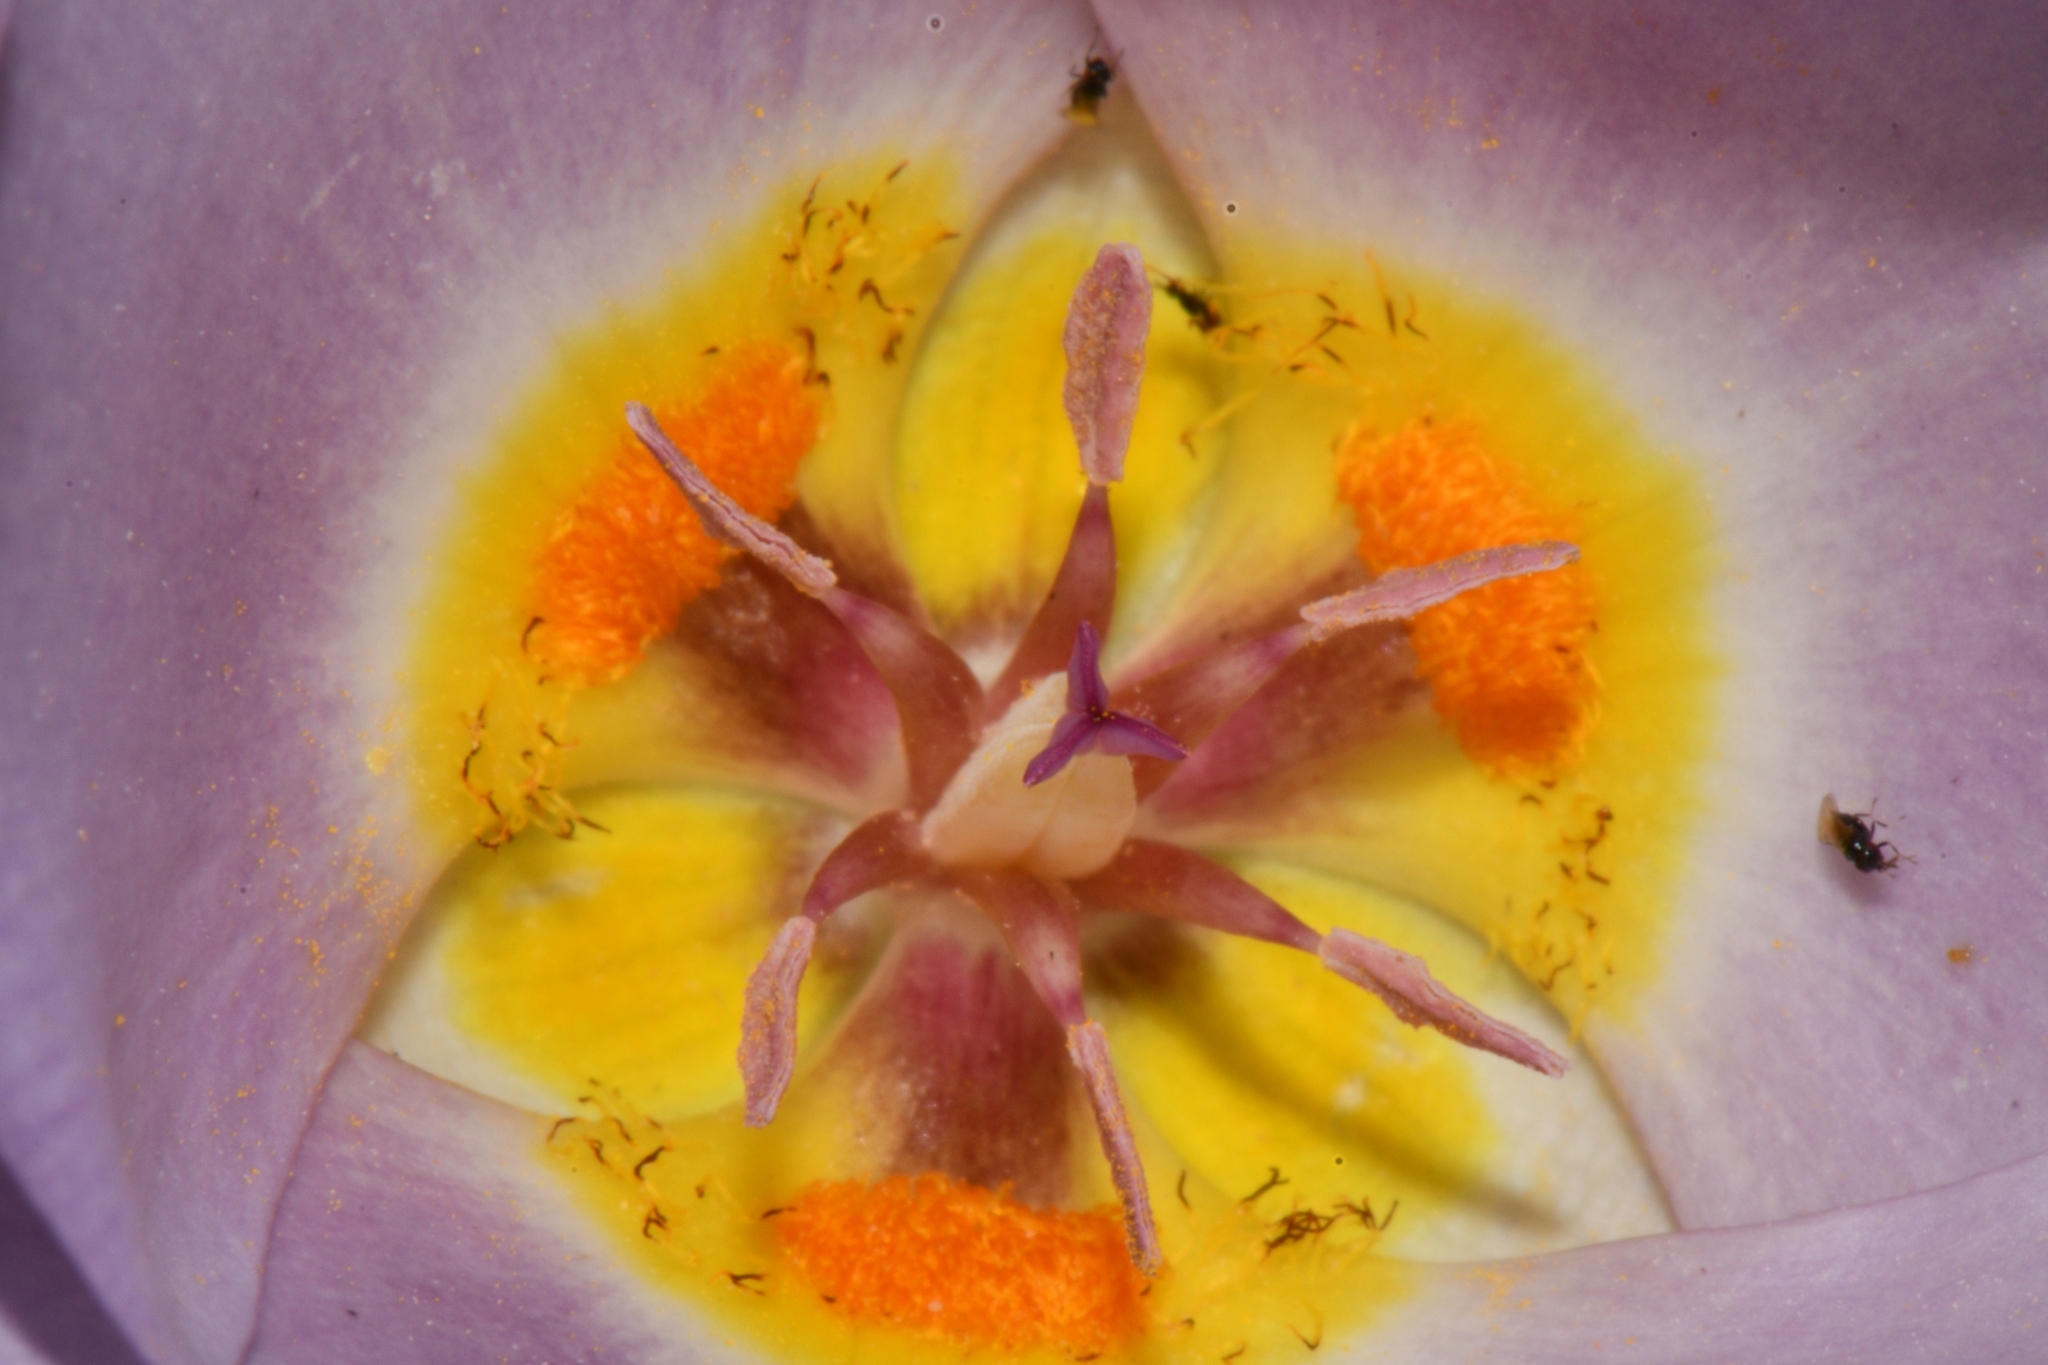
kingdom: Plantae
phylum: Tracheophyta
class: Liliopsida
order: Liliales
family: Liliaceae
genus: Calochortus
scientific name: Calochortus flexuosus
